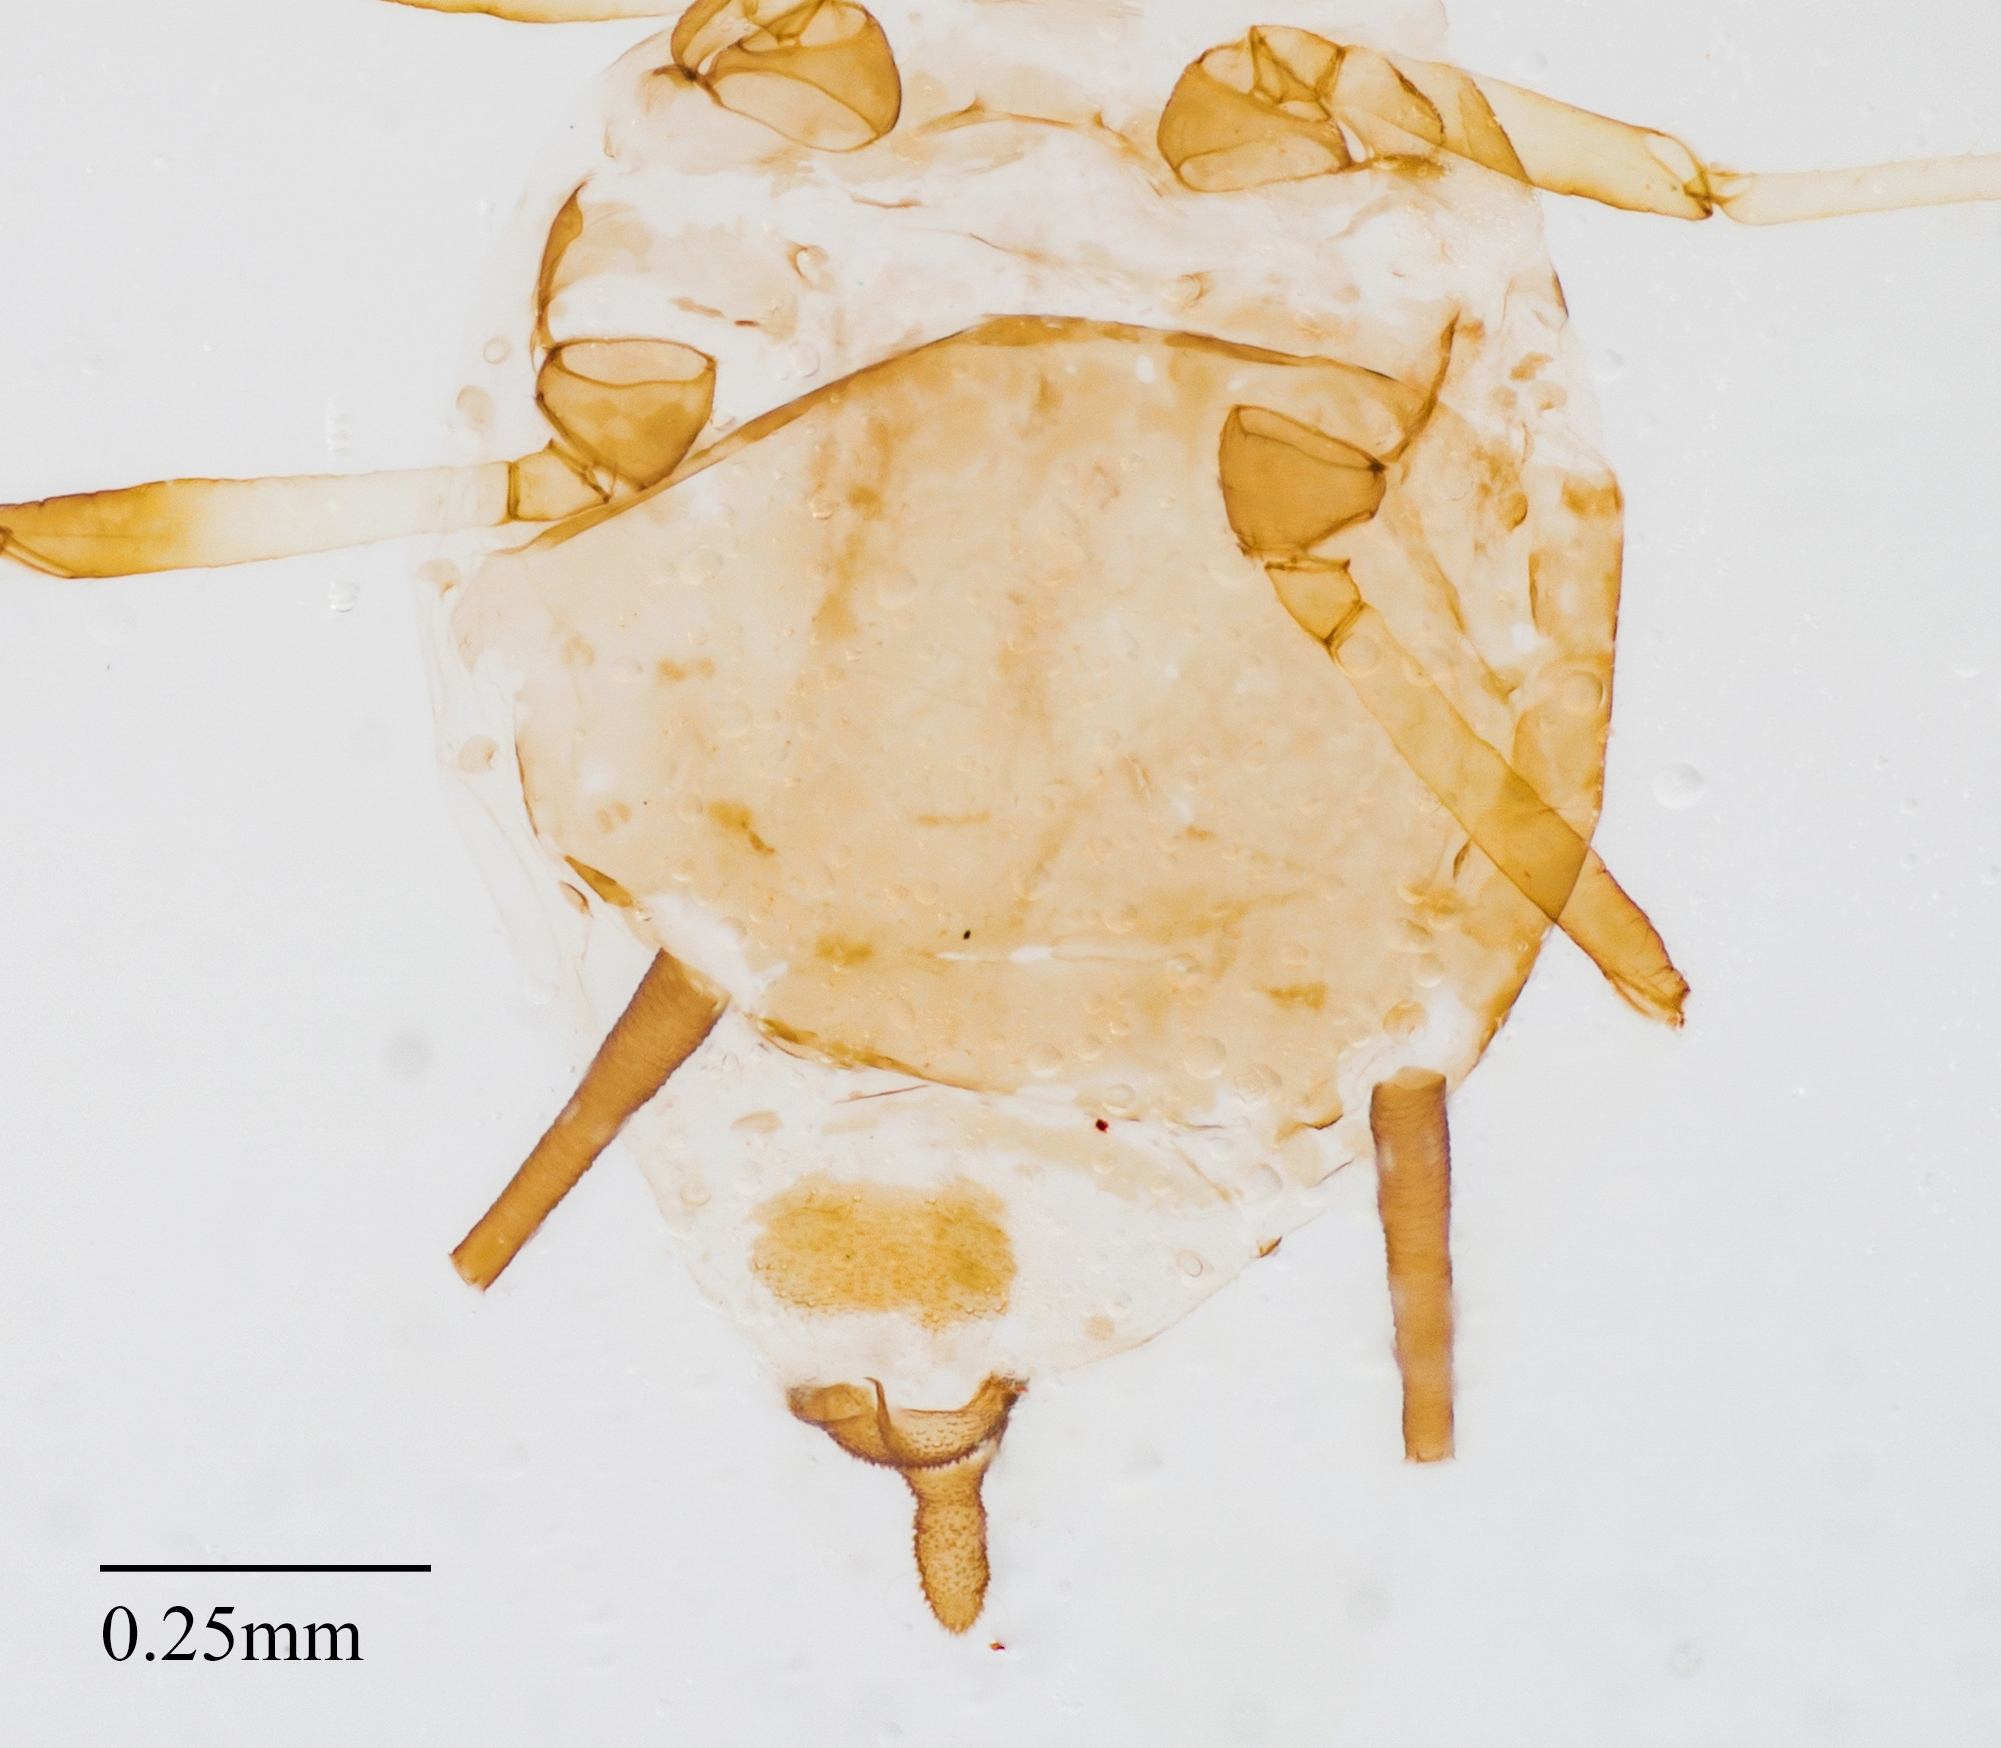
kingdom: Animalia
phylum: Arthropoda
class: Insecta
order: Hemiptera
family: Aphididae
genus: Aphis
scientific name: Aphis craccivora
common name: Cowpea aphid
